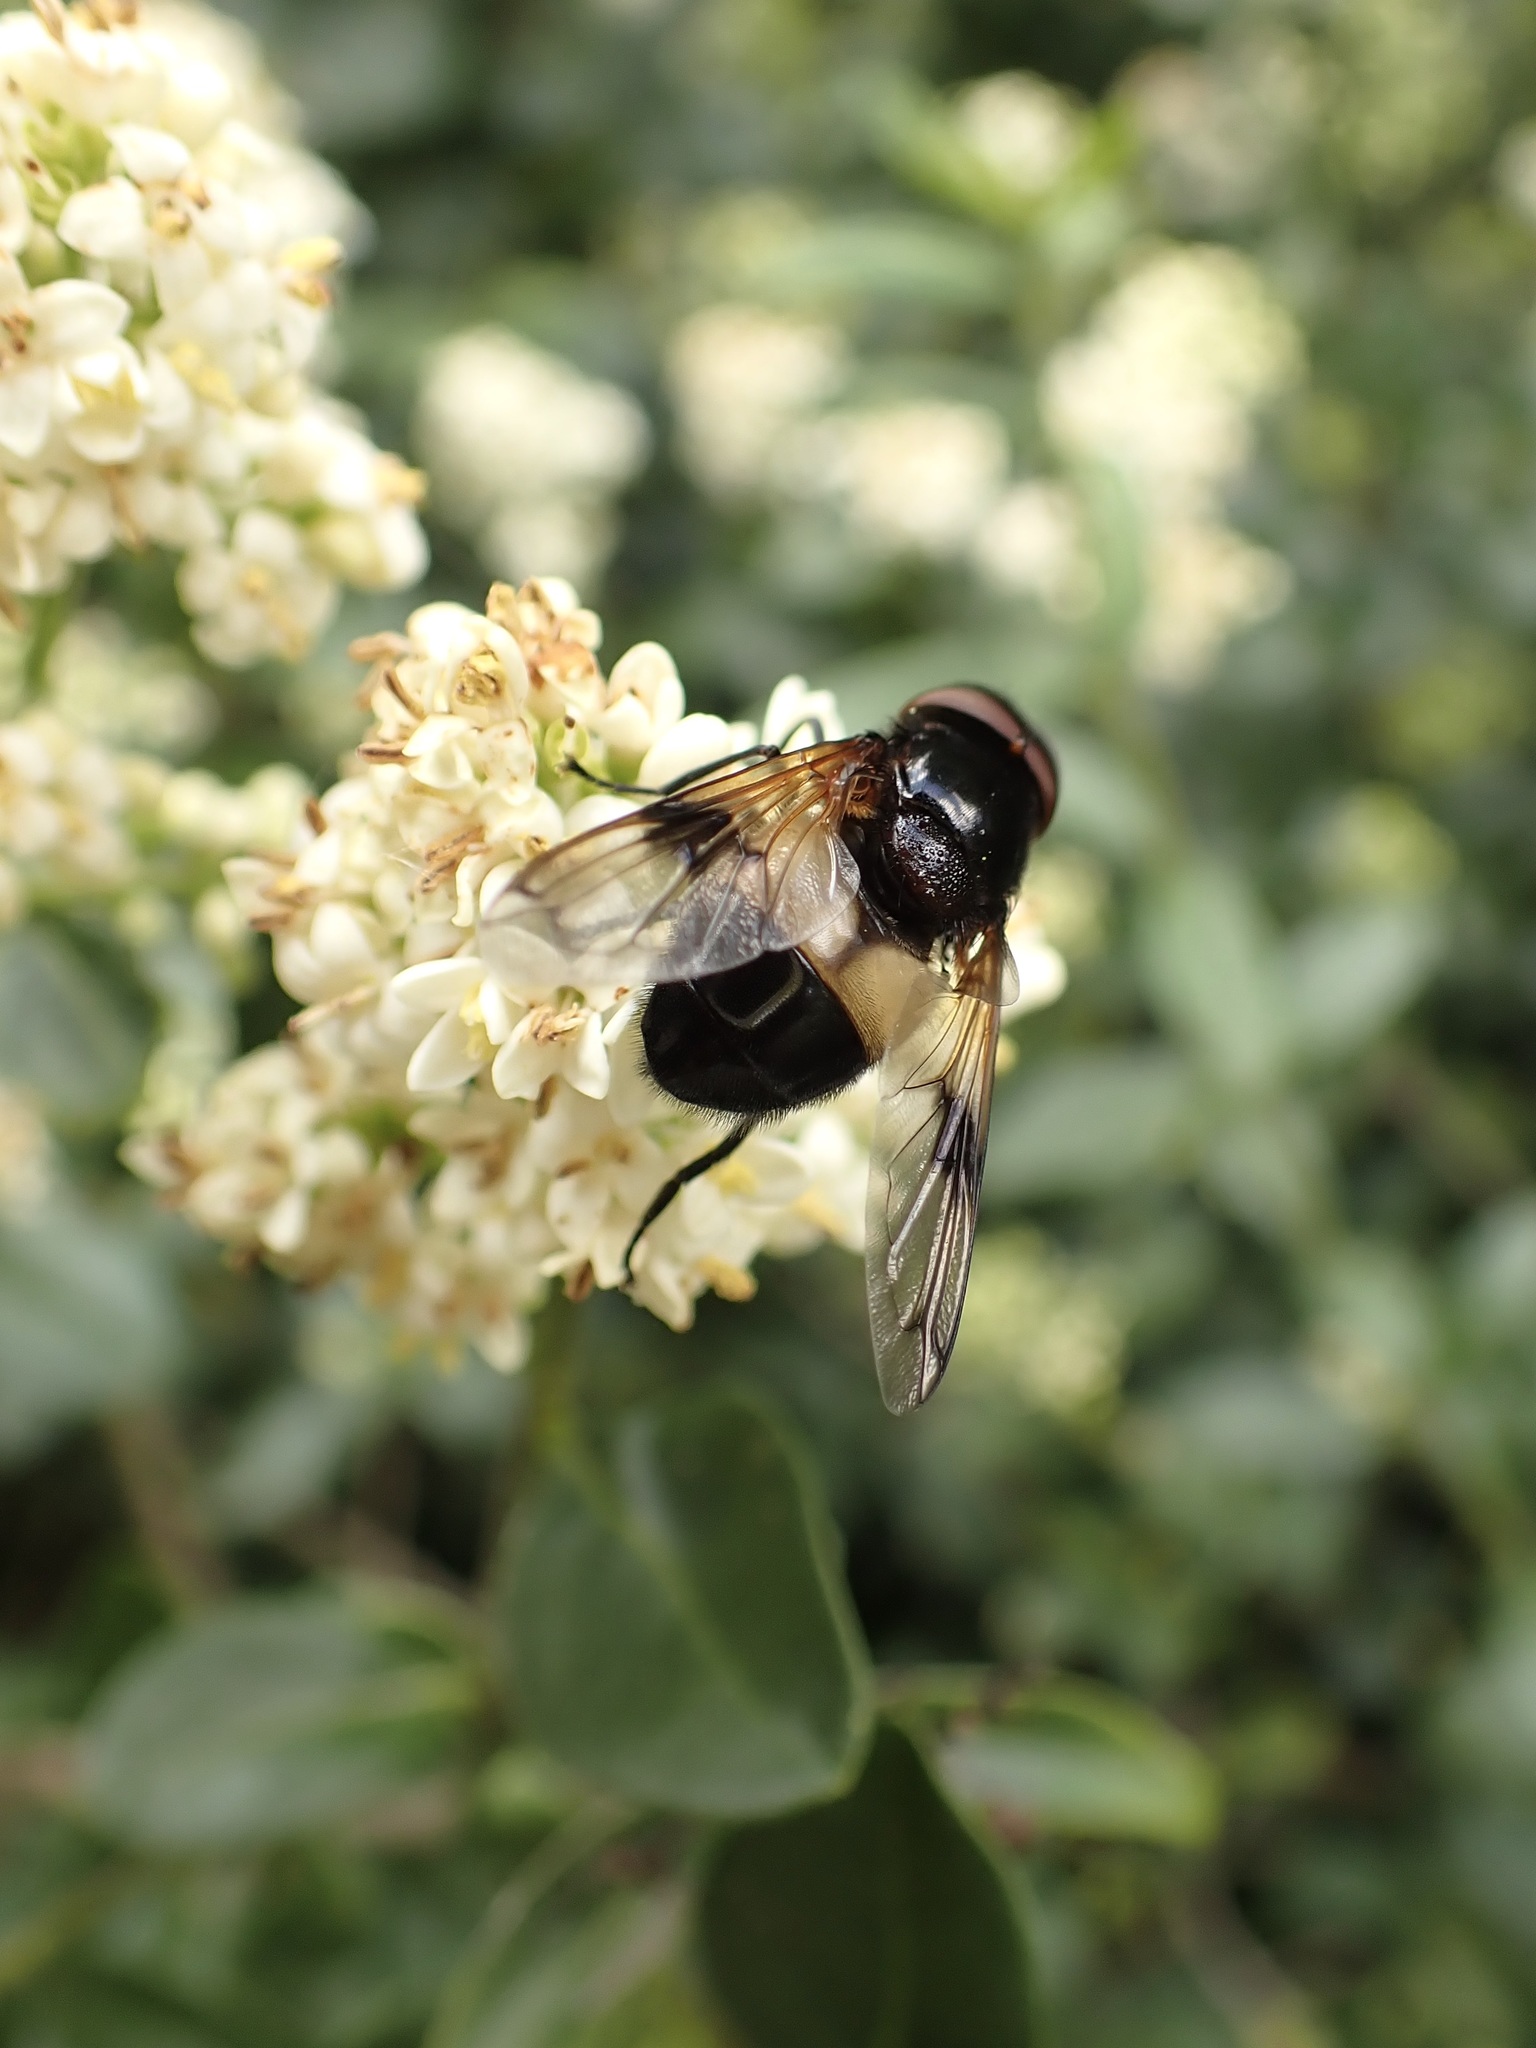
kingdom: Animalia
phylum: Arthropoda
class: Insecta
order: Diptera
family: Syrphidae
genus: Volucella
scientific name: Volucella pellucens
